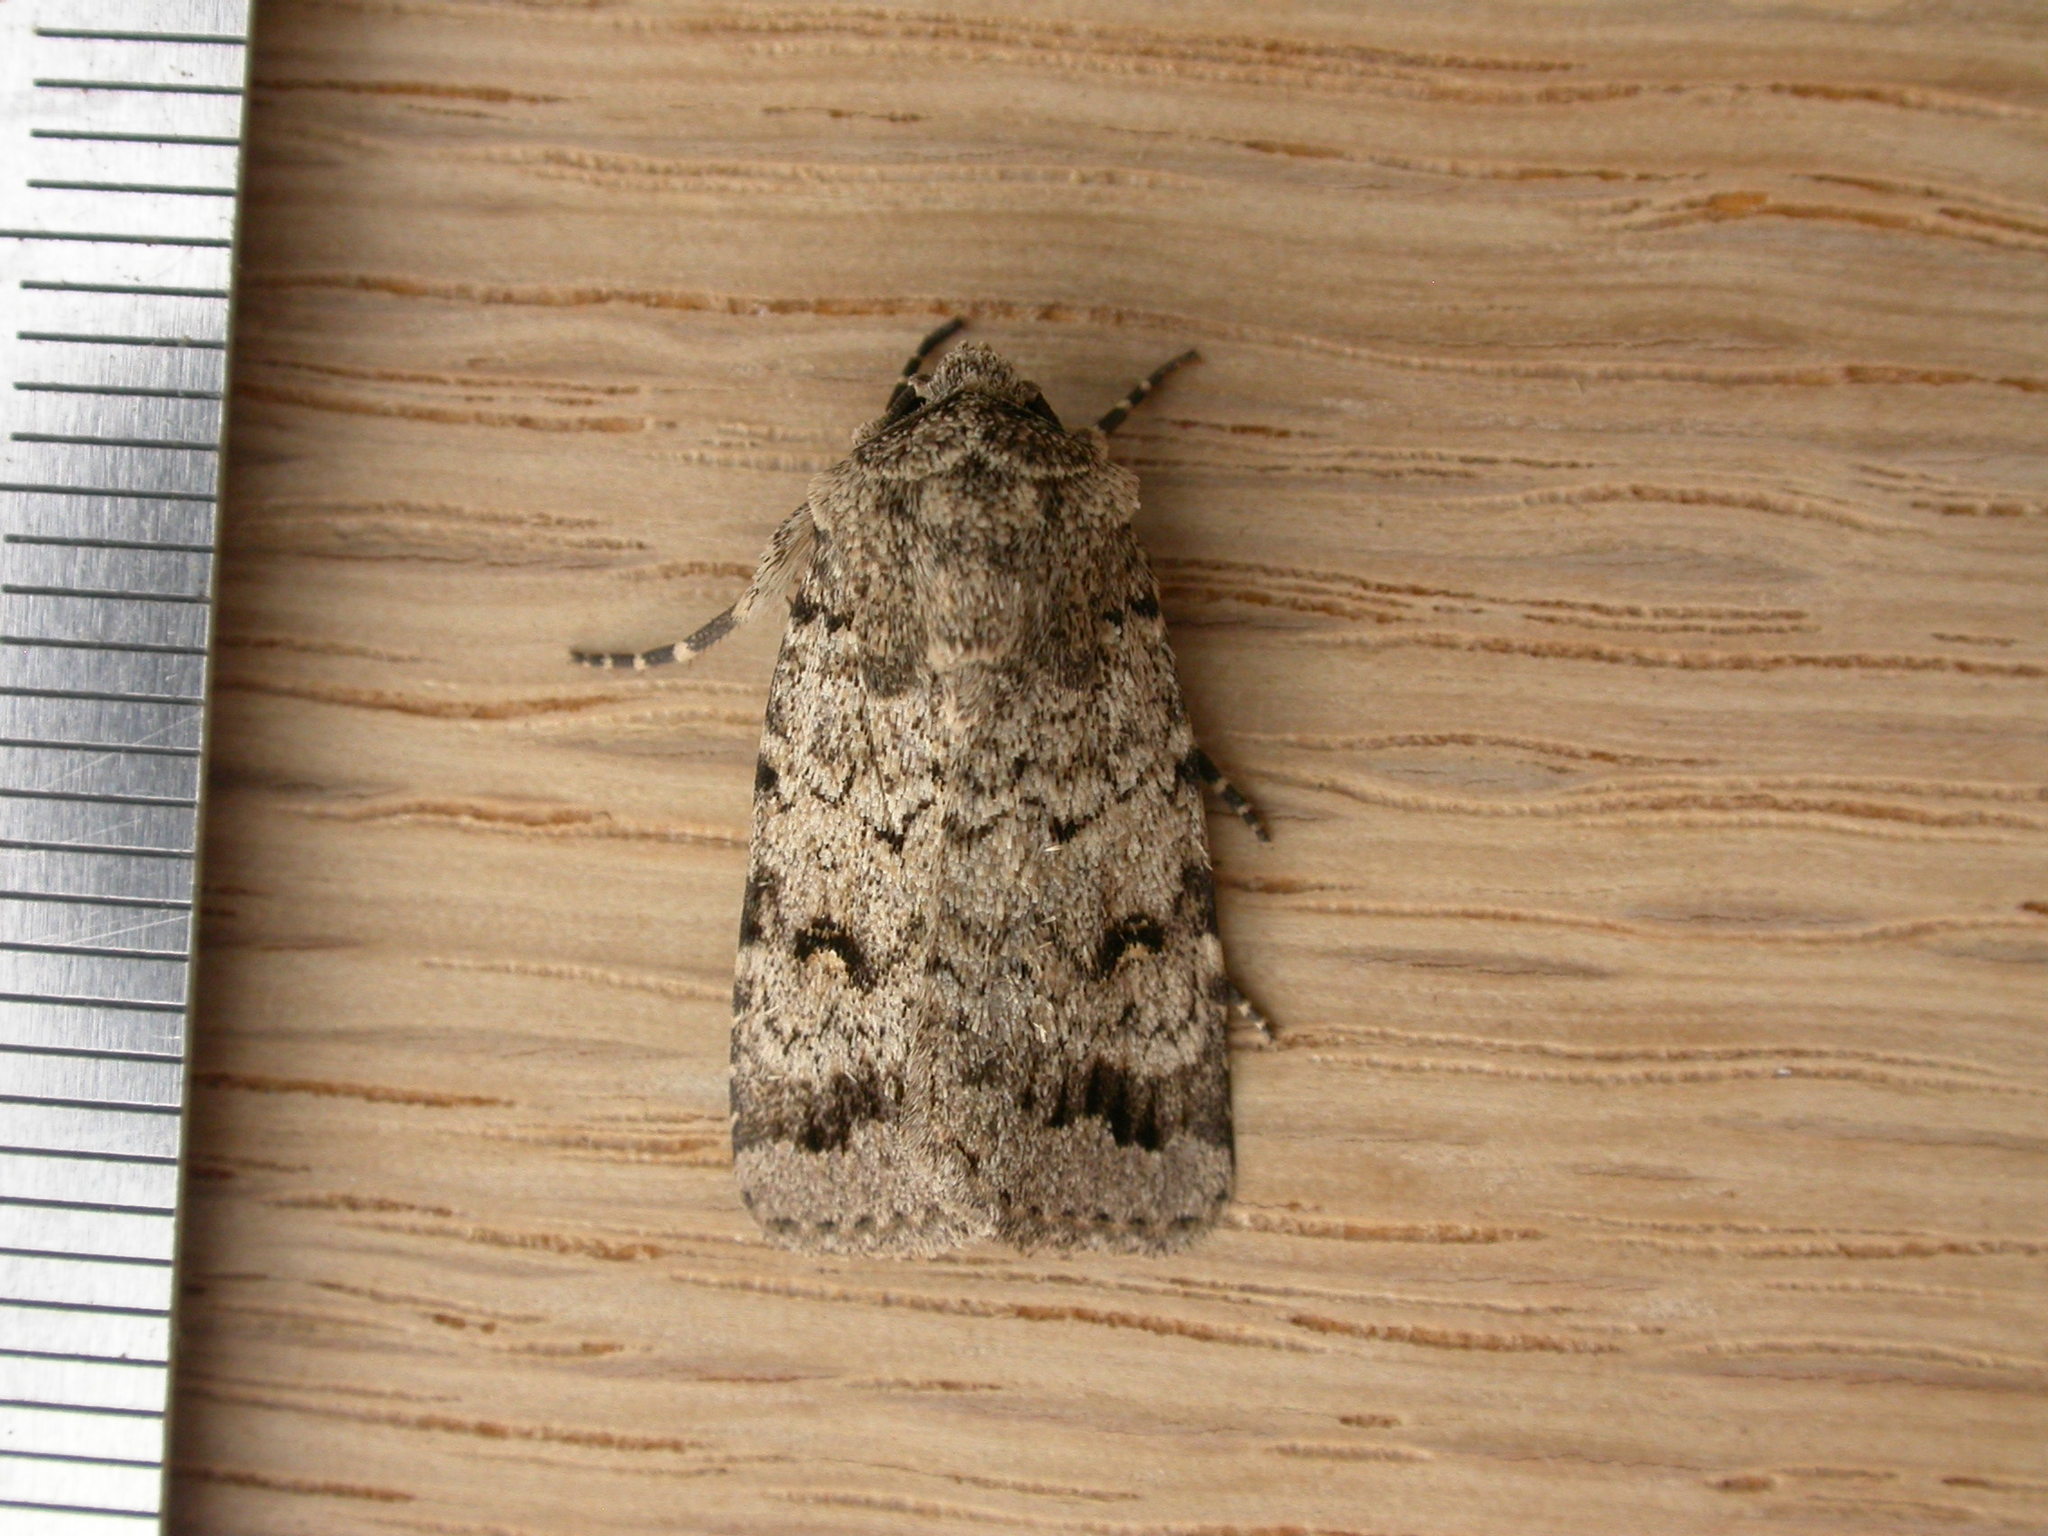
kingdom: Animalia
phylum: Arthropoda
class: Insecta
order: Lepidoptera
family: Noctuidae
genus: Proteuxoa
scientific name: Proteuxoa capularis
